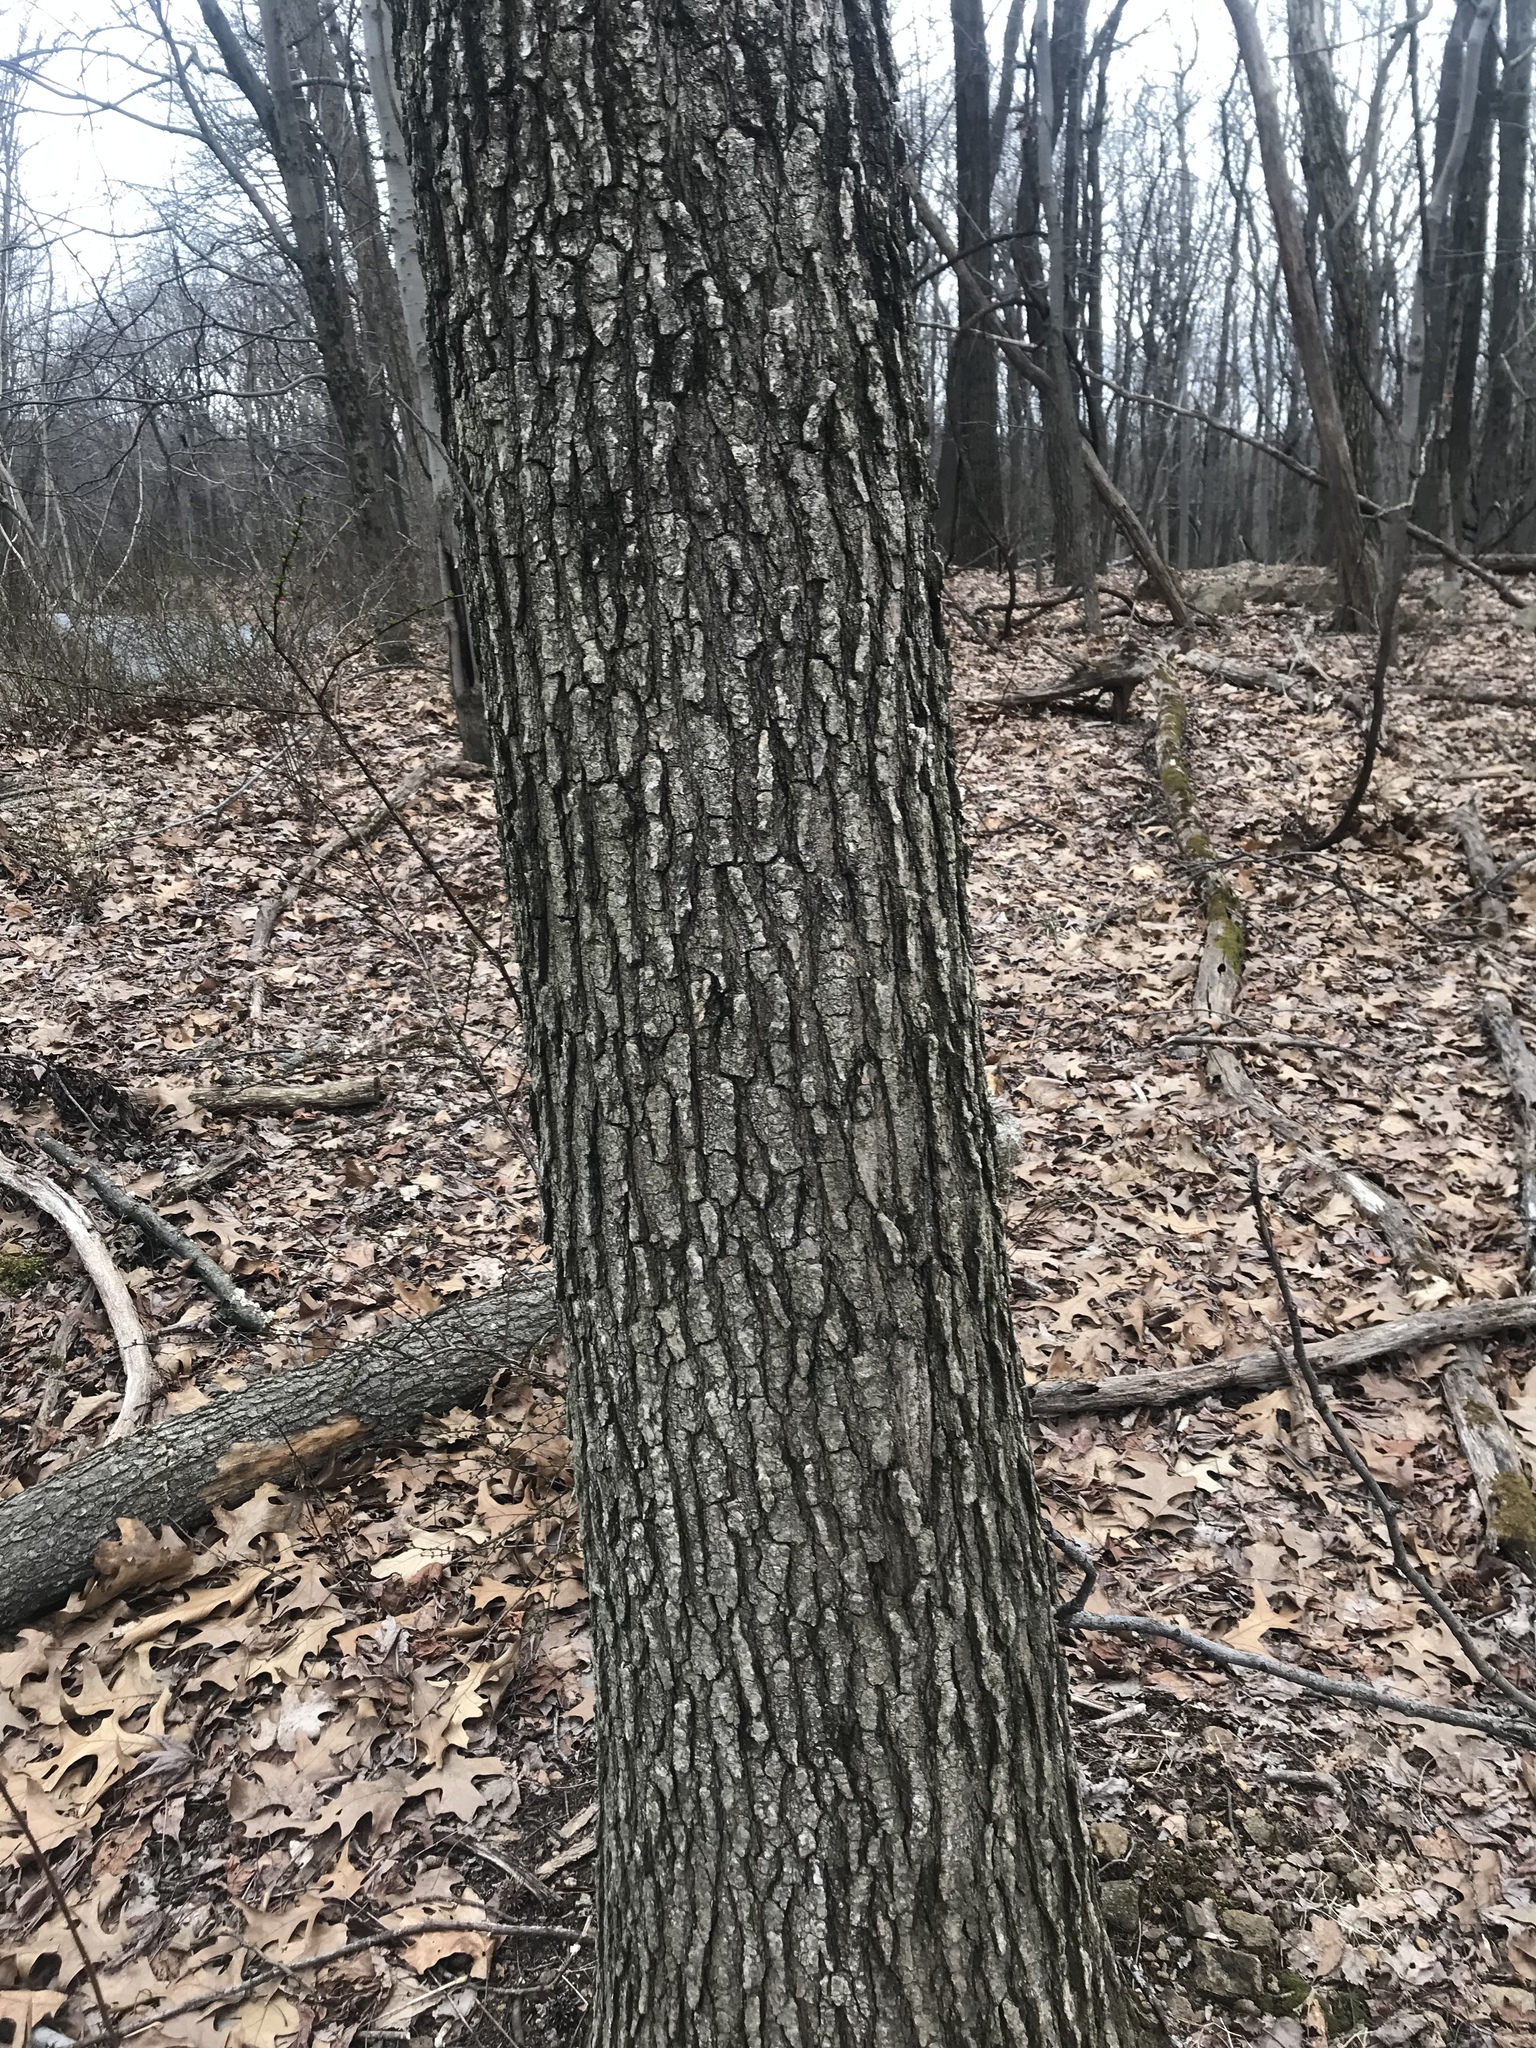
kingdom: Plantae
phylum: Tracheophyta
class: Magnoliopsida
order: Saxifragales
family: Altingiaceae
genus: Liquidambar
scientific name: Liquidambar styraciflua
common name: Sweet gum
